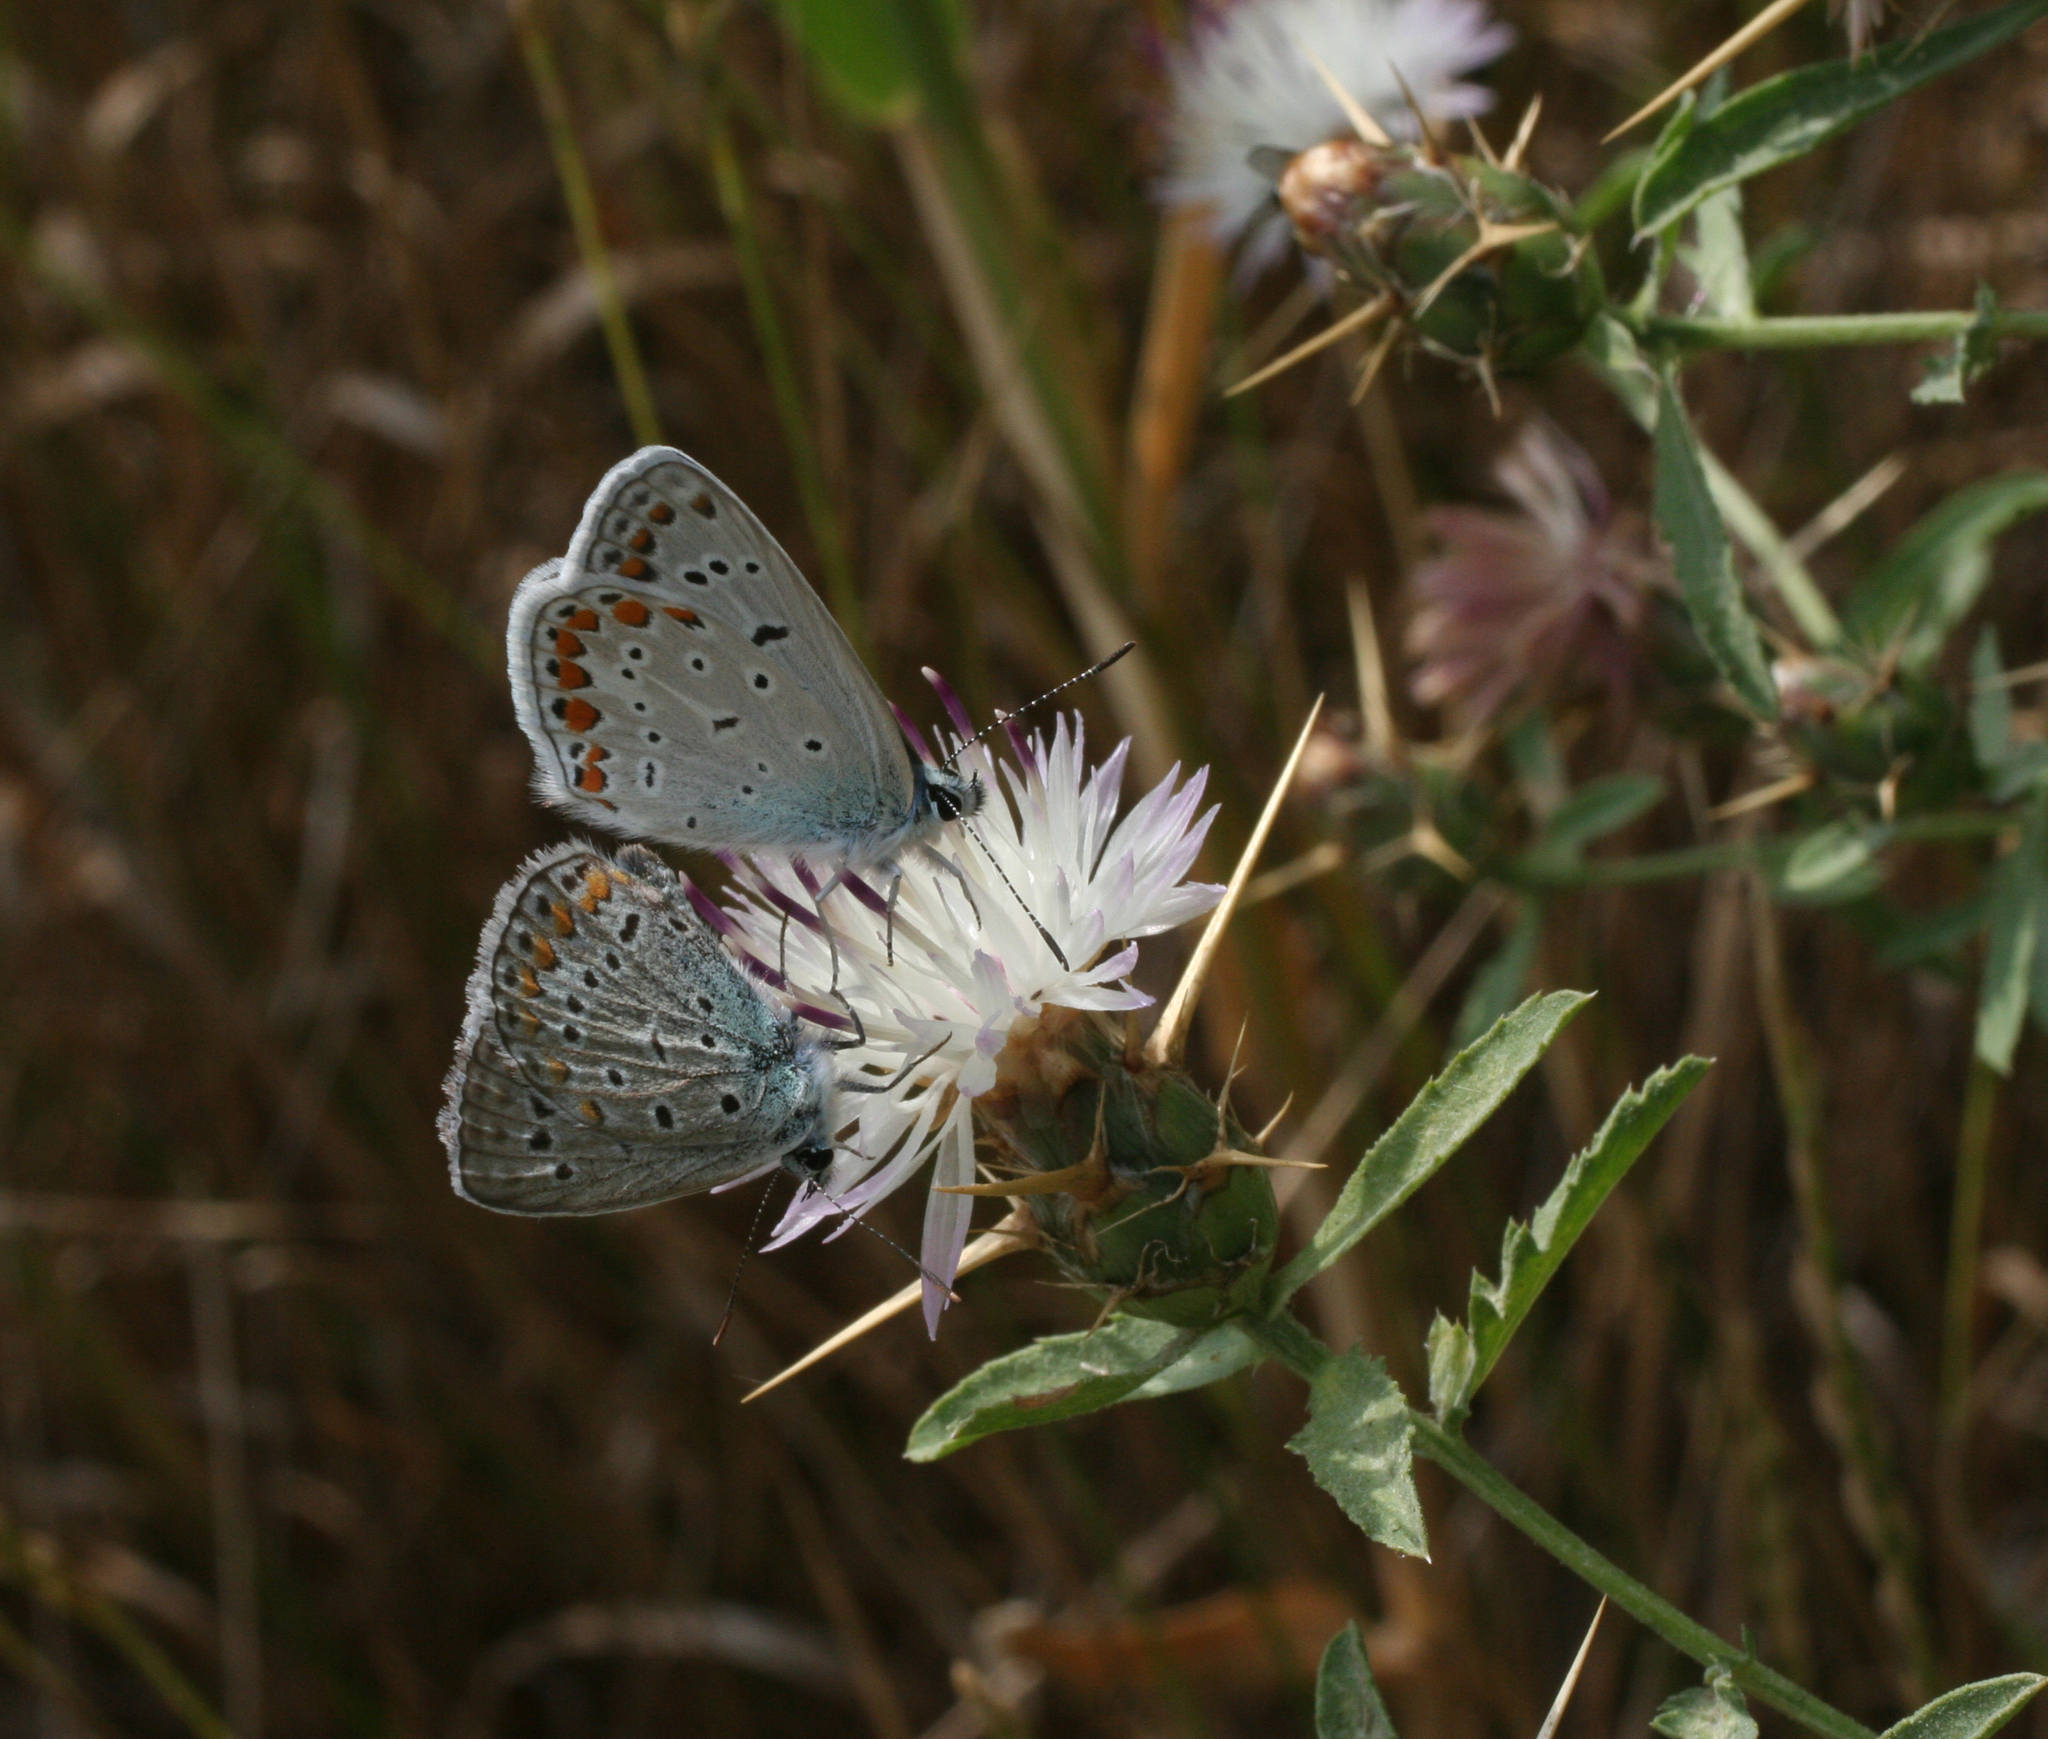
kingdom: Animalia
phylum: Arthropoda
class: Insecta
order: Lepidoptera
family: Lycaenidae
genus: Polyommatus
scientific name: Polyommatus icarus
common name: Common blue
